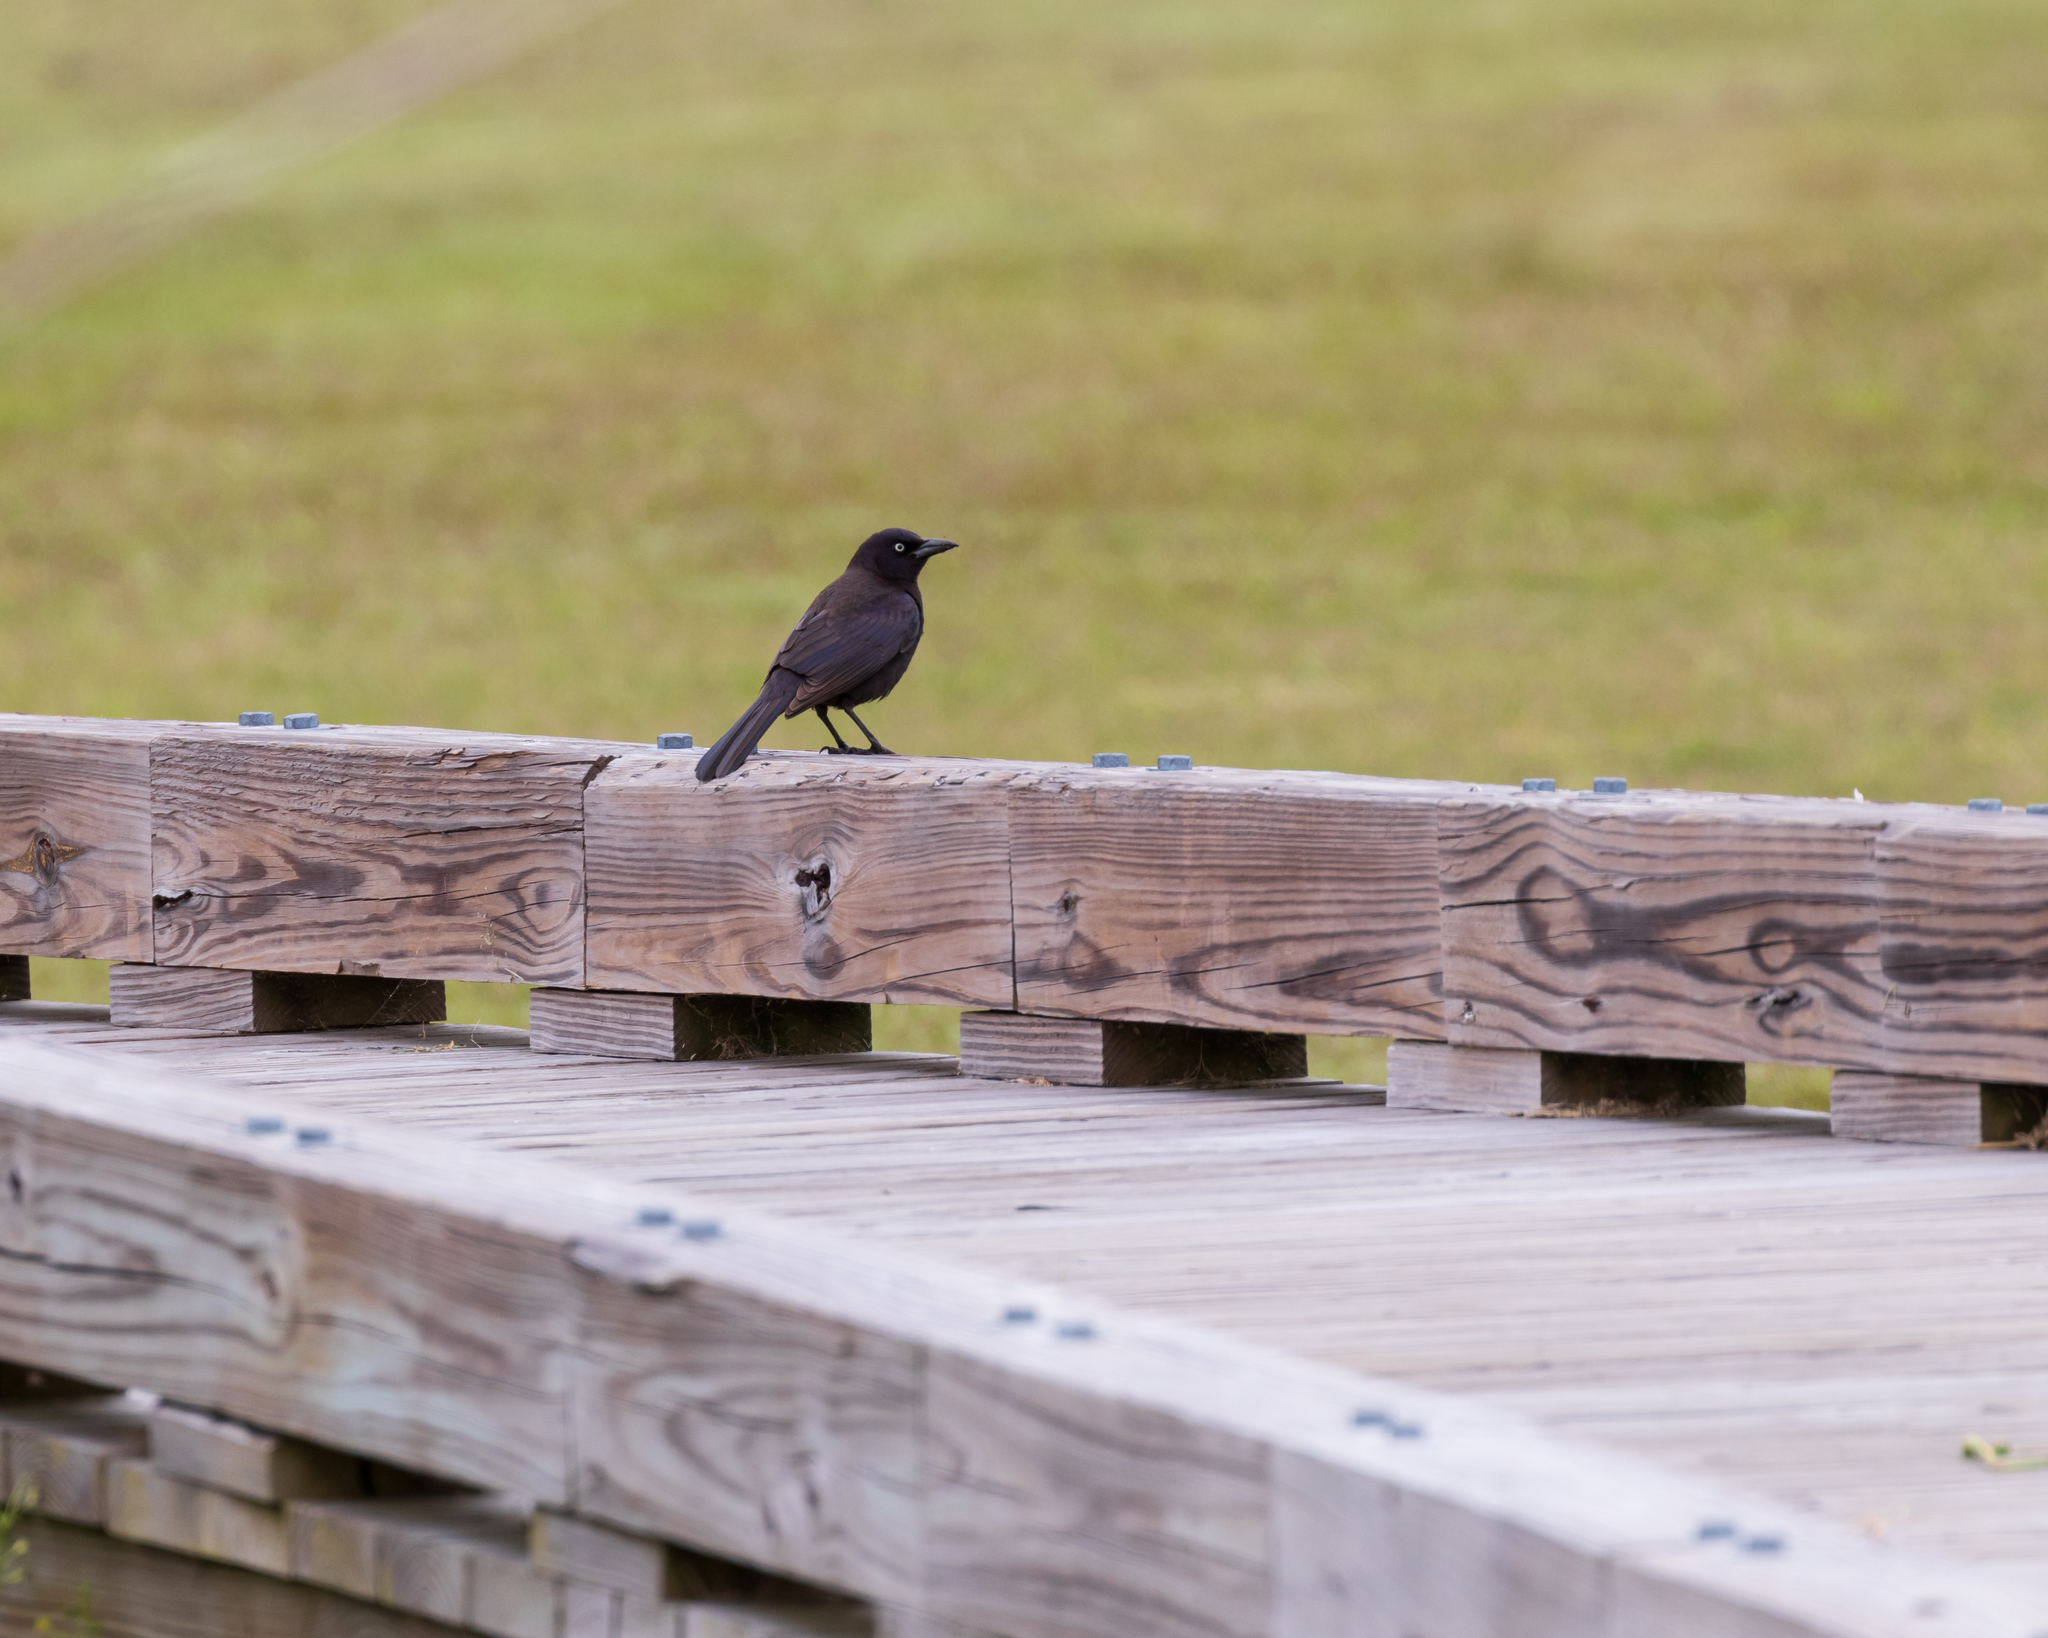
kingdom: Animalia
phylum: Chordata
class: Aves
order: Passeriformes
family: Icteridae
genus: Quiscalus
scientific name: Quiscalus quiscula
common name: Common grackle
